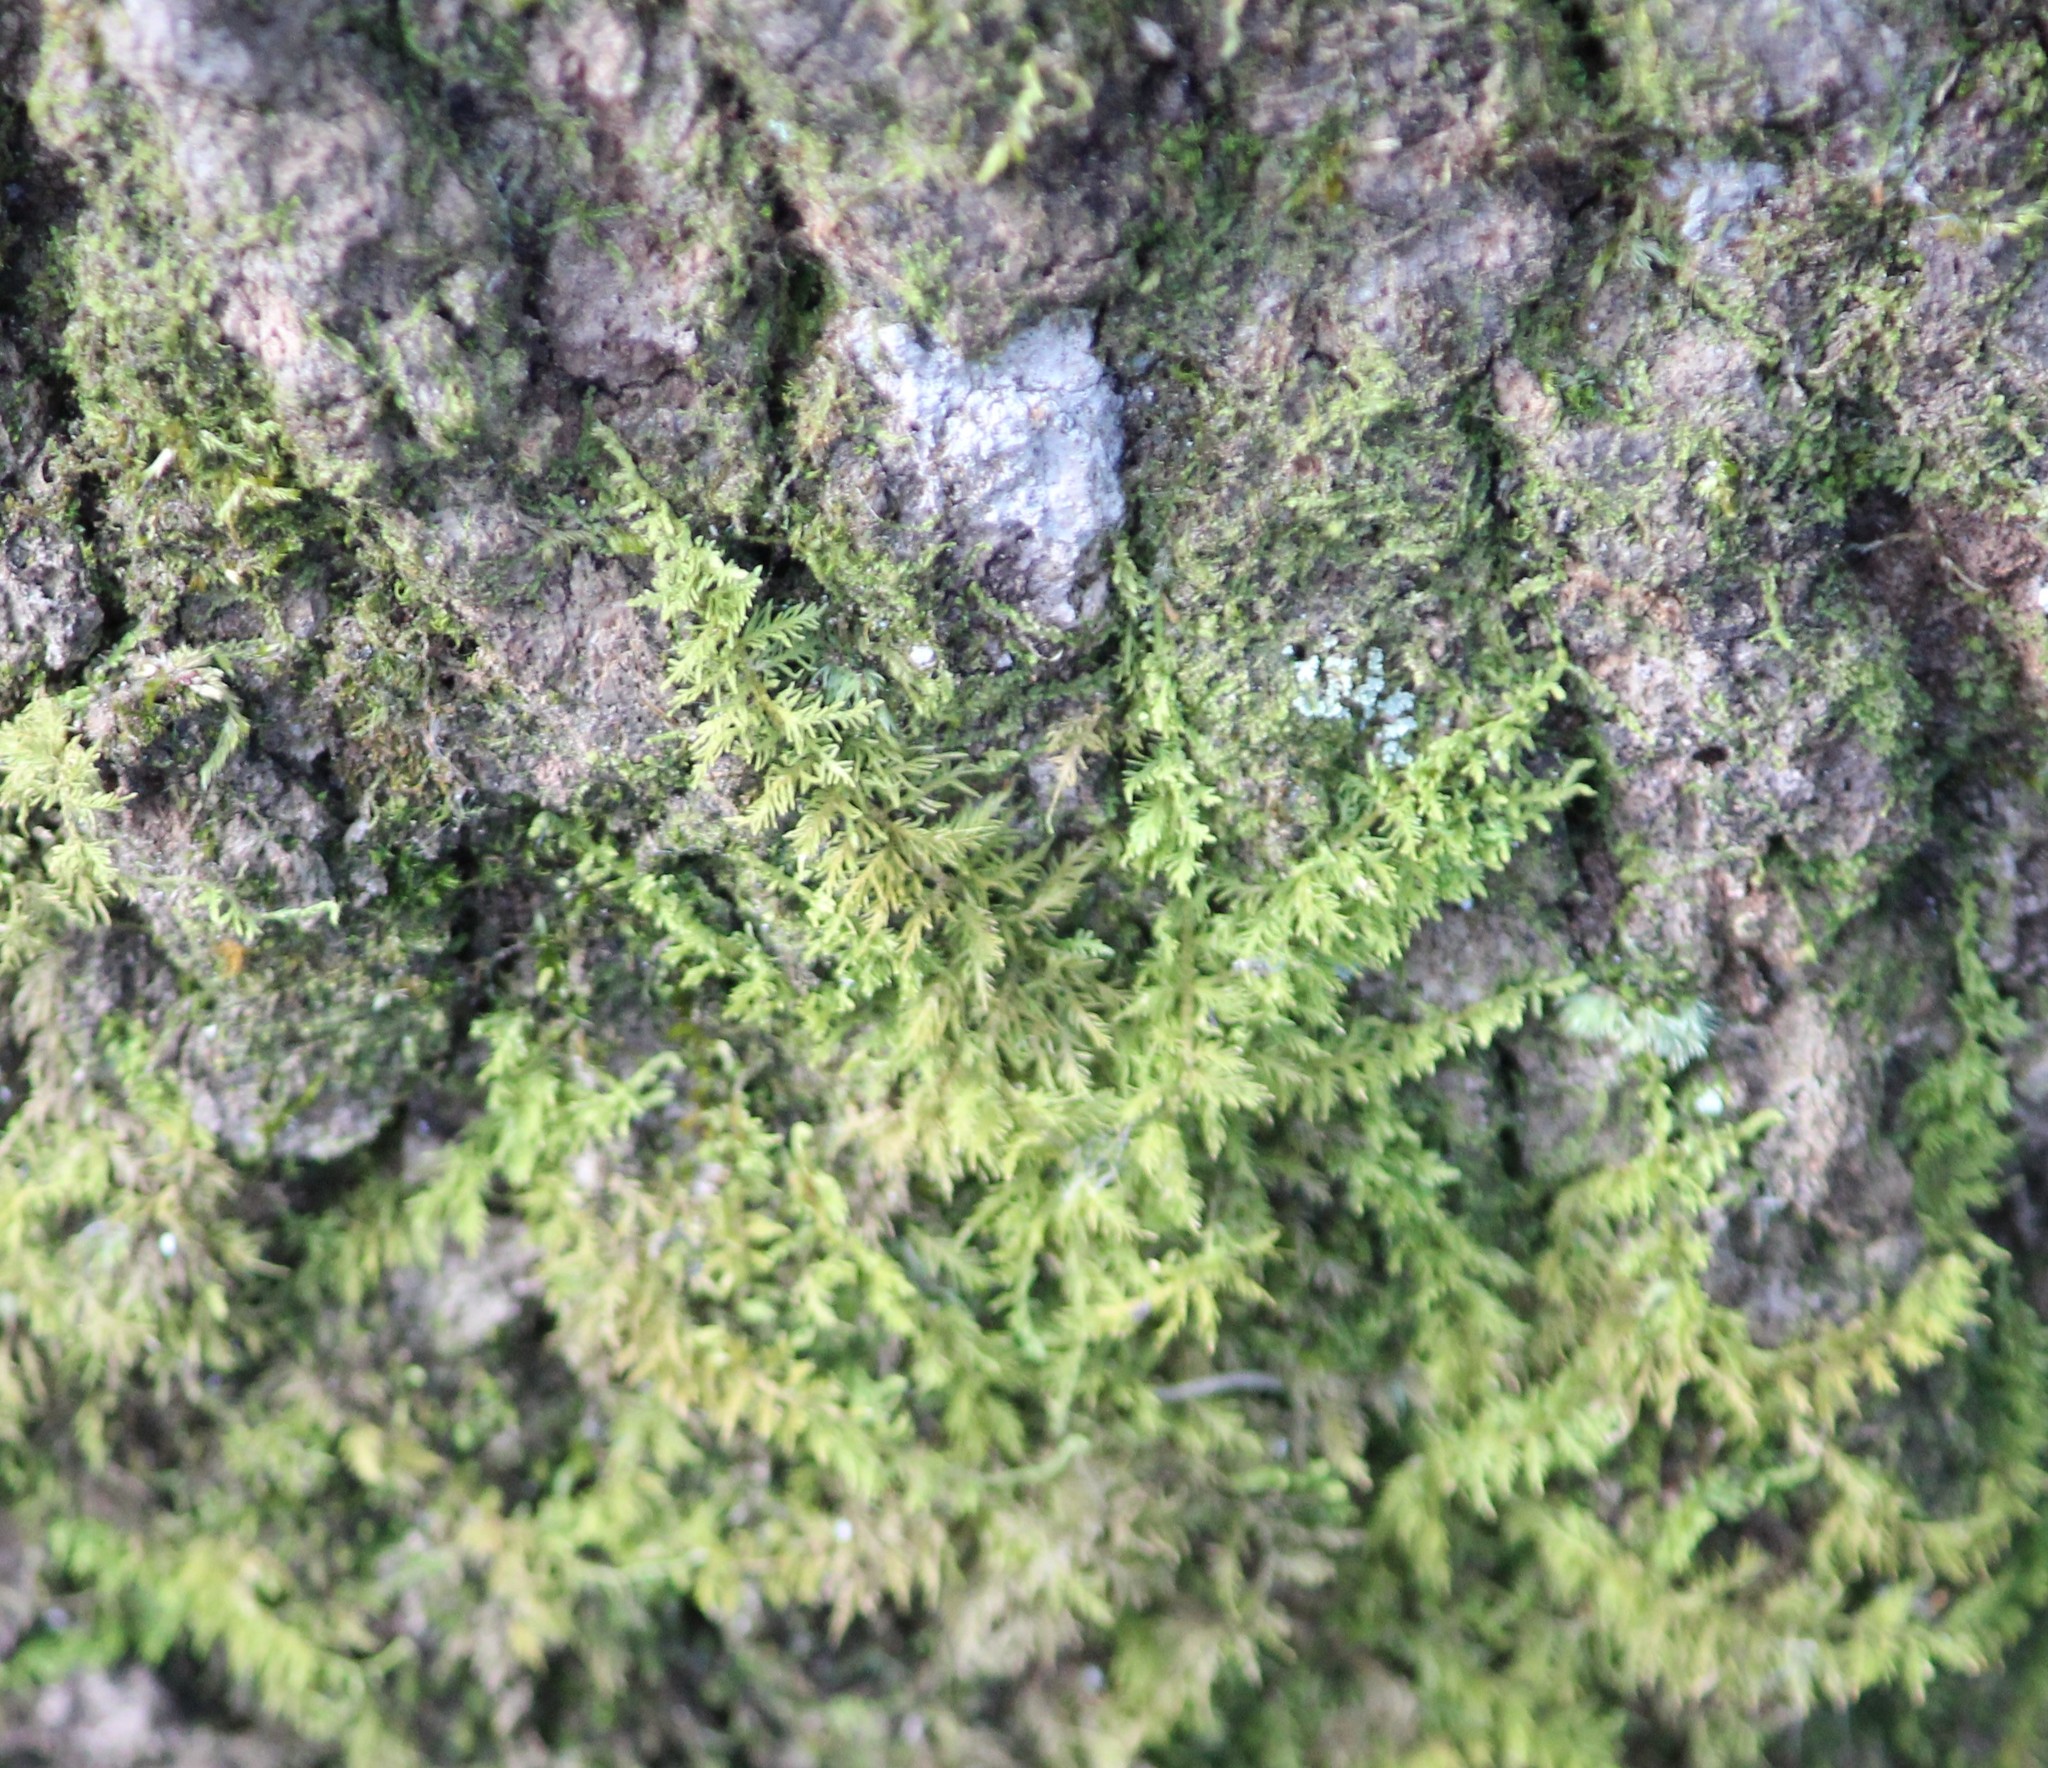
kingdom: Plantae
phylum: Bryophyta
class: Bryopsida
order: Hypnales
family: Thuidiaceae
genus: Thuidium
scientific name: Thuidium delicatulum
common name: Delicate fern moss
